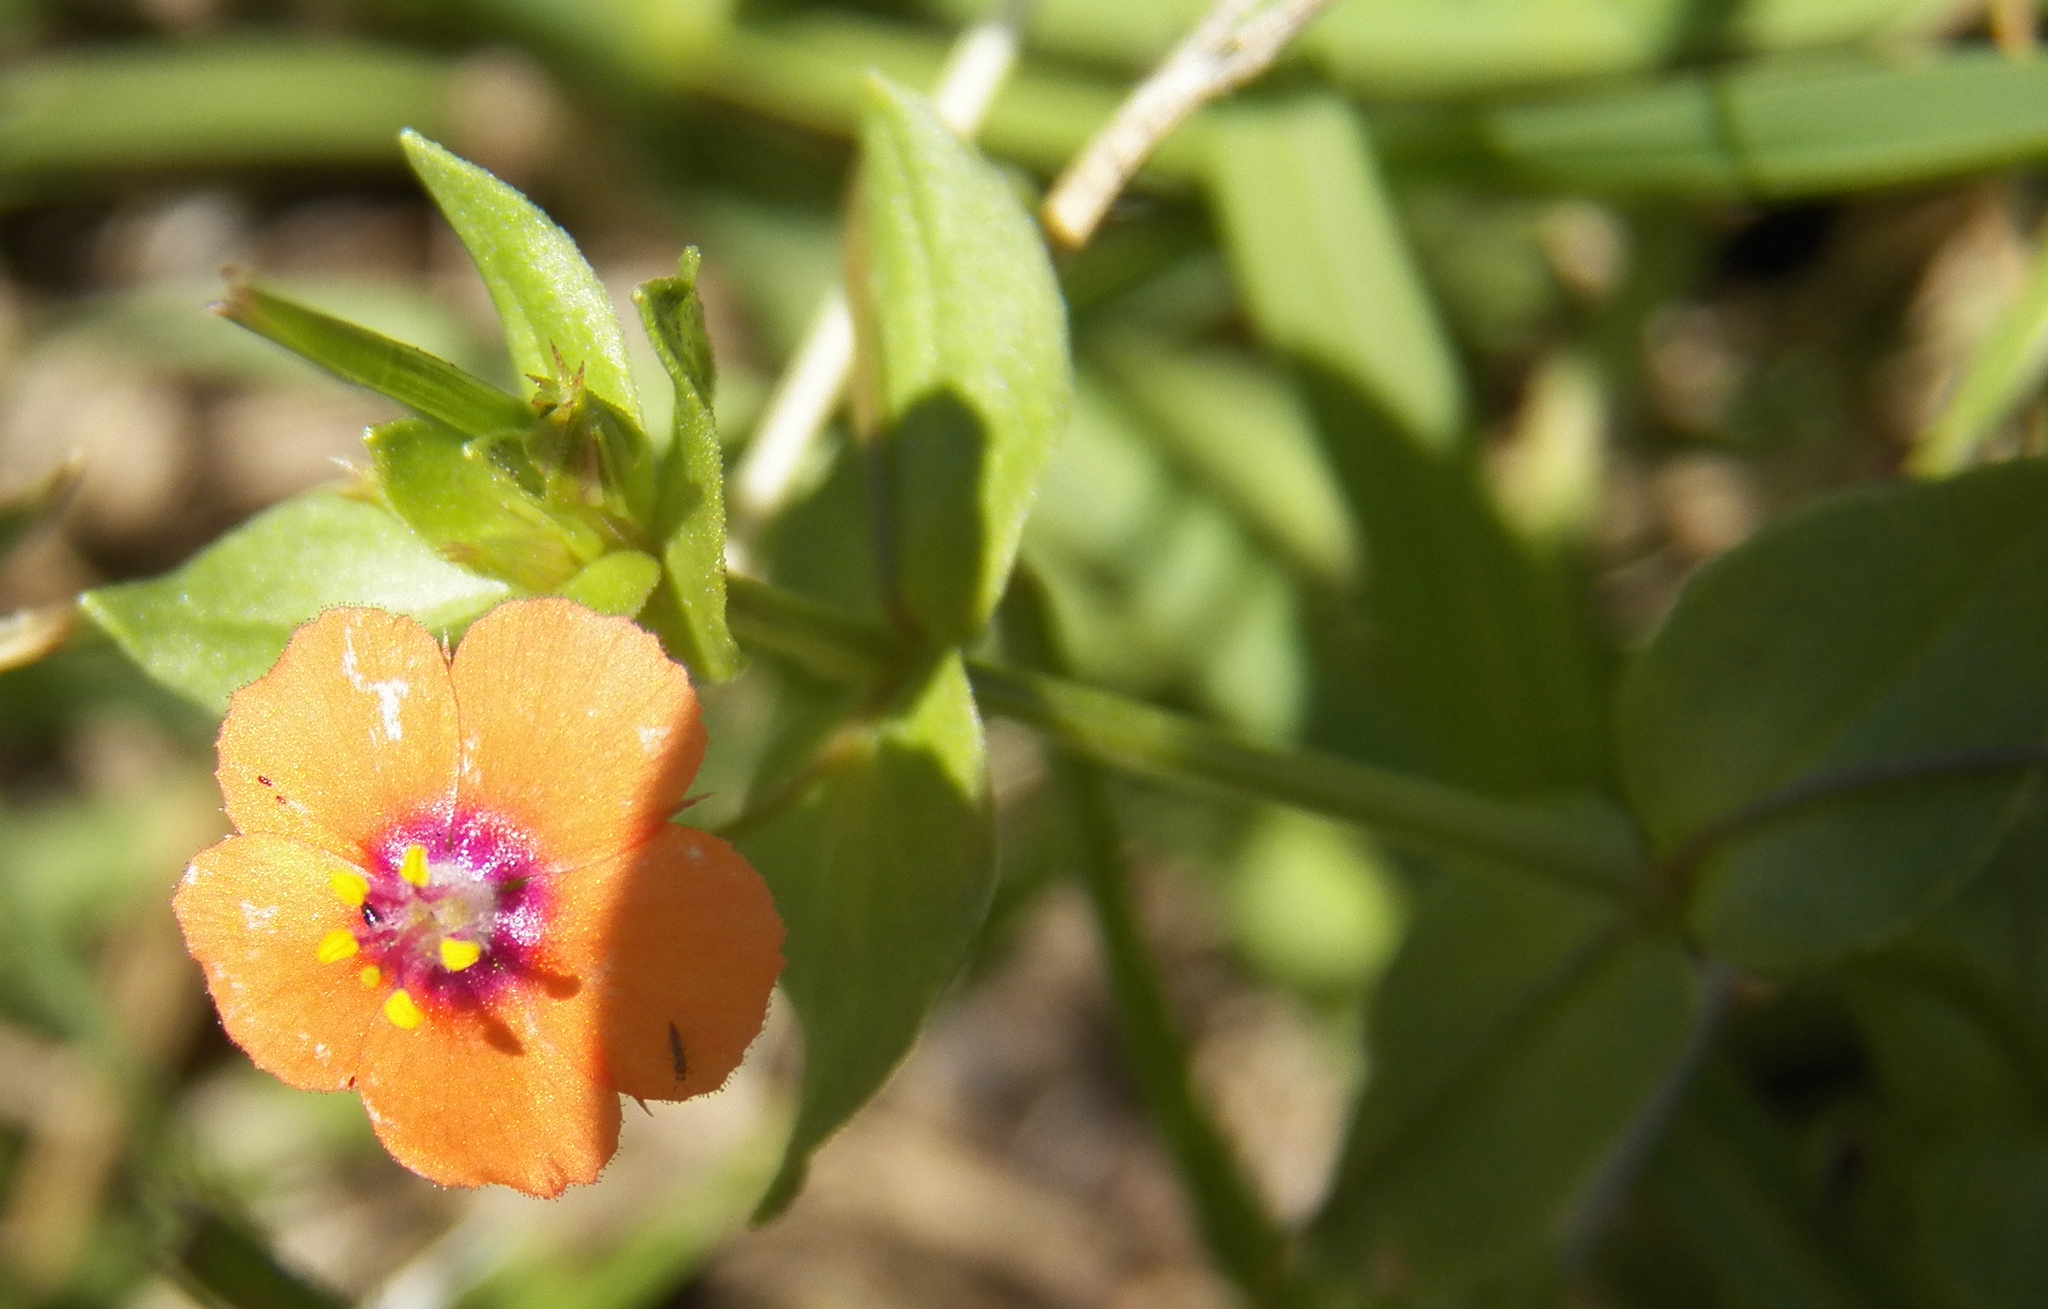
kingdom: Plantae
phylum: Tracheophyta
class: Magnoliopsida
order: Ericales
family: Primulaceae
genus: Lysimachia
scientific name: Lysimachia arvensis
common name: Scarlet pimpernel
